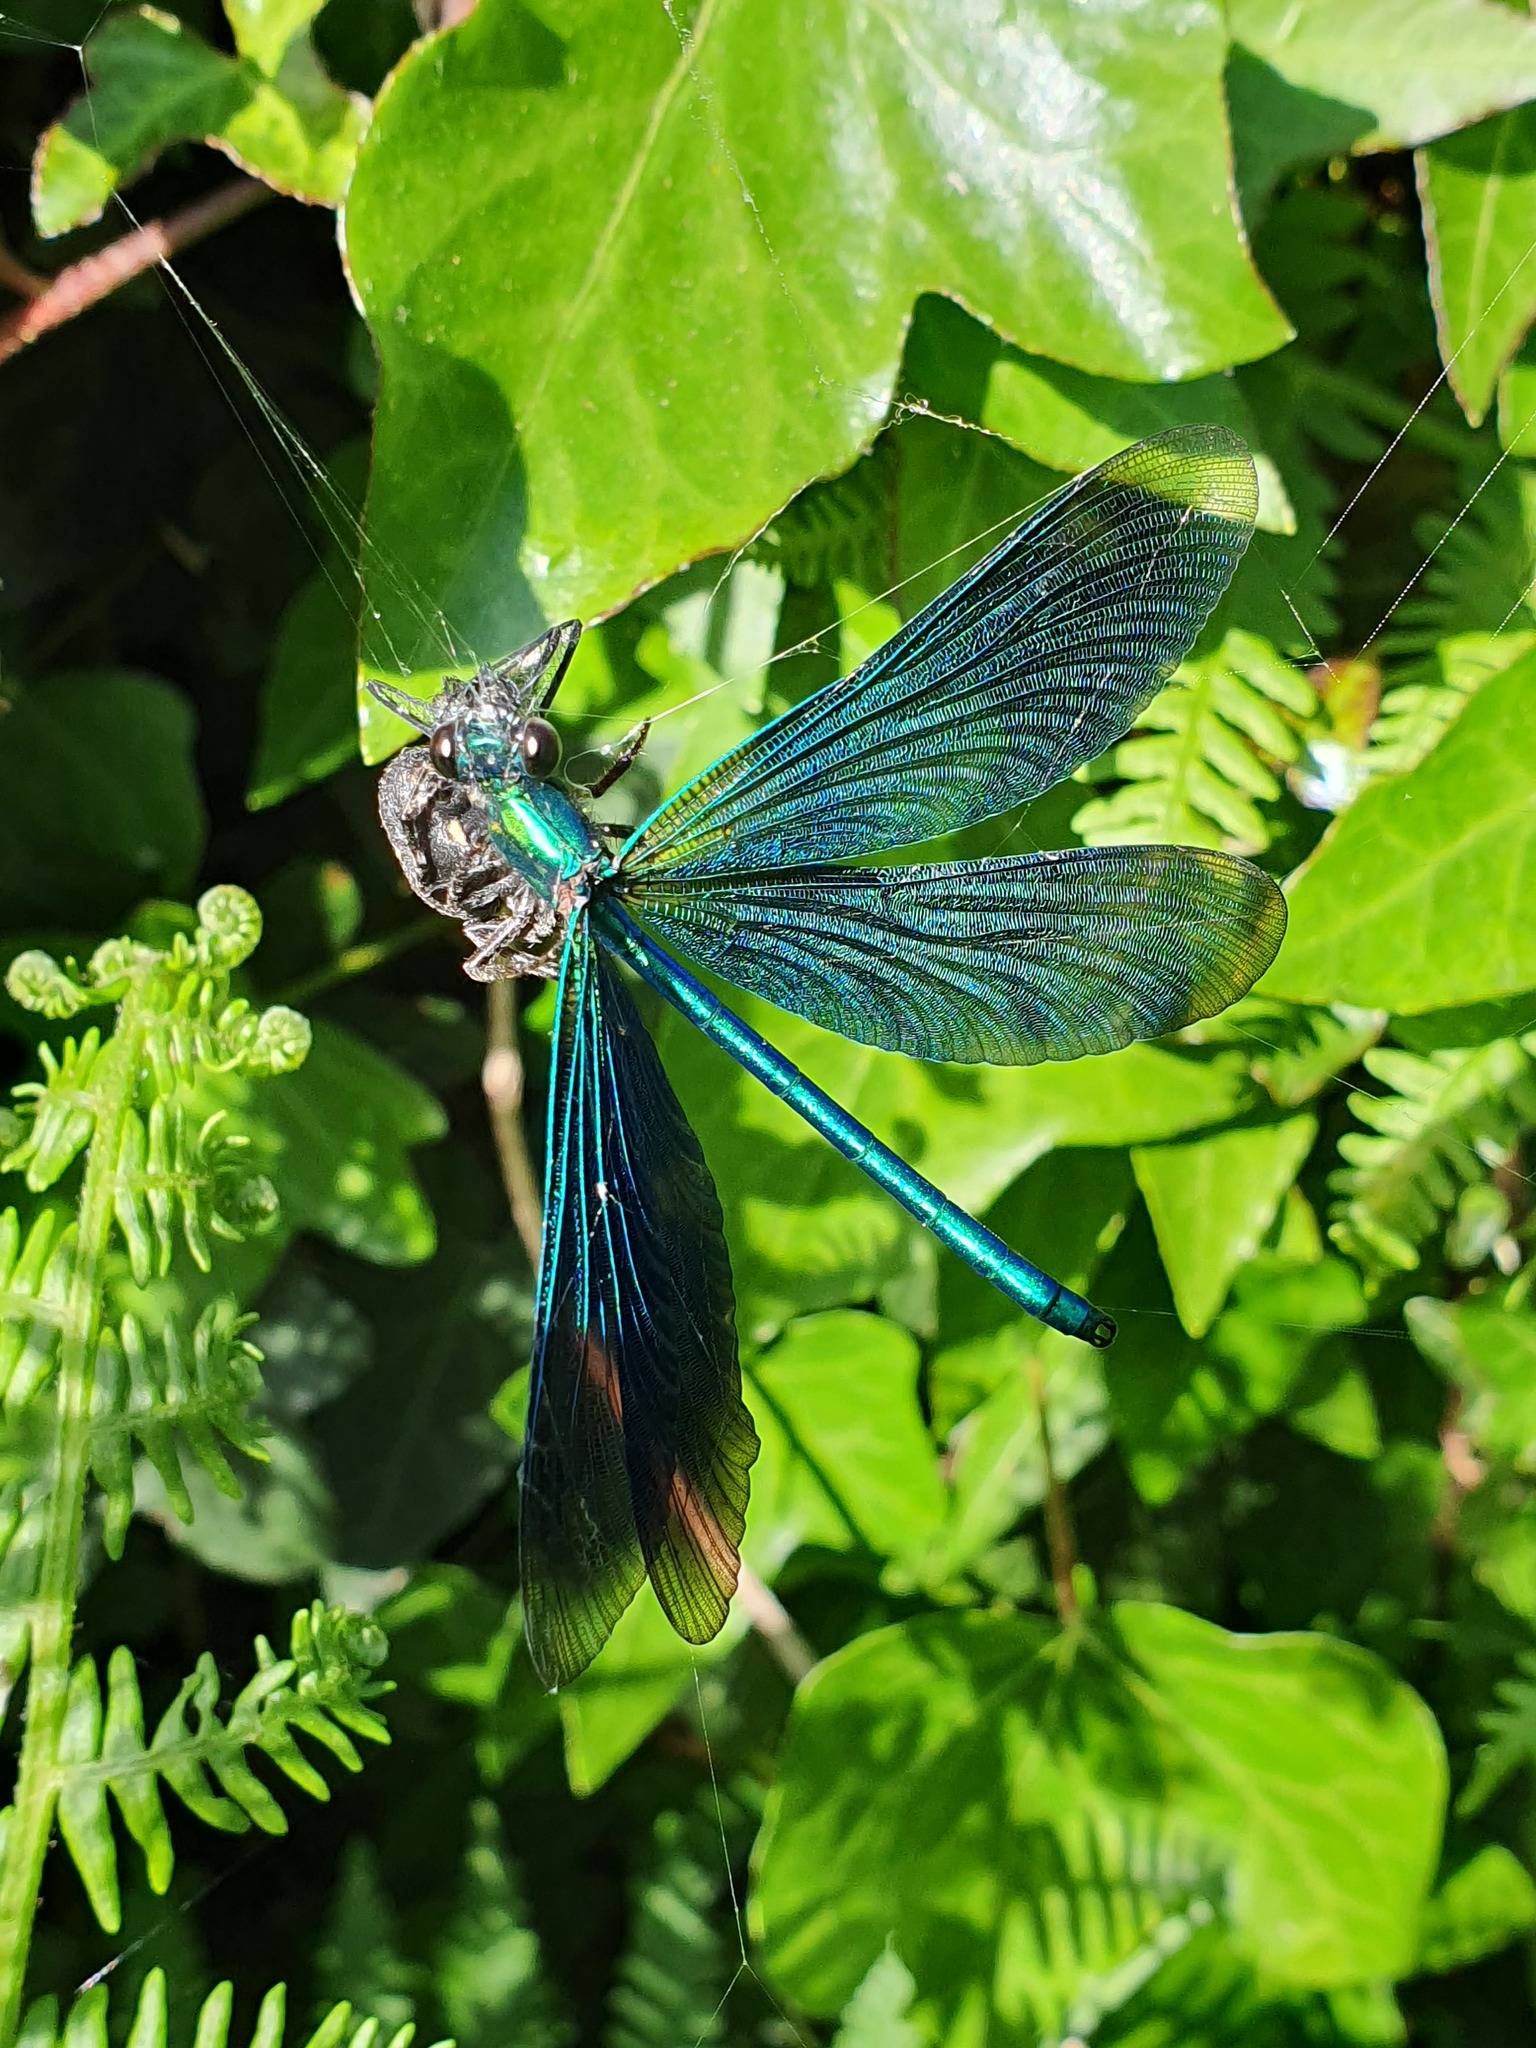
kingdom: Animalia
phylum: Arthropoda
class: Insecta
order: Odonata
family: Calopterygidae
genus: Calopteryx
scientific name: Calopteryx virgo
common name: Beautiful demoiselle
